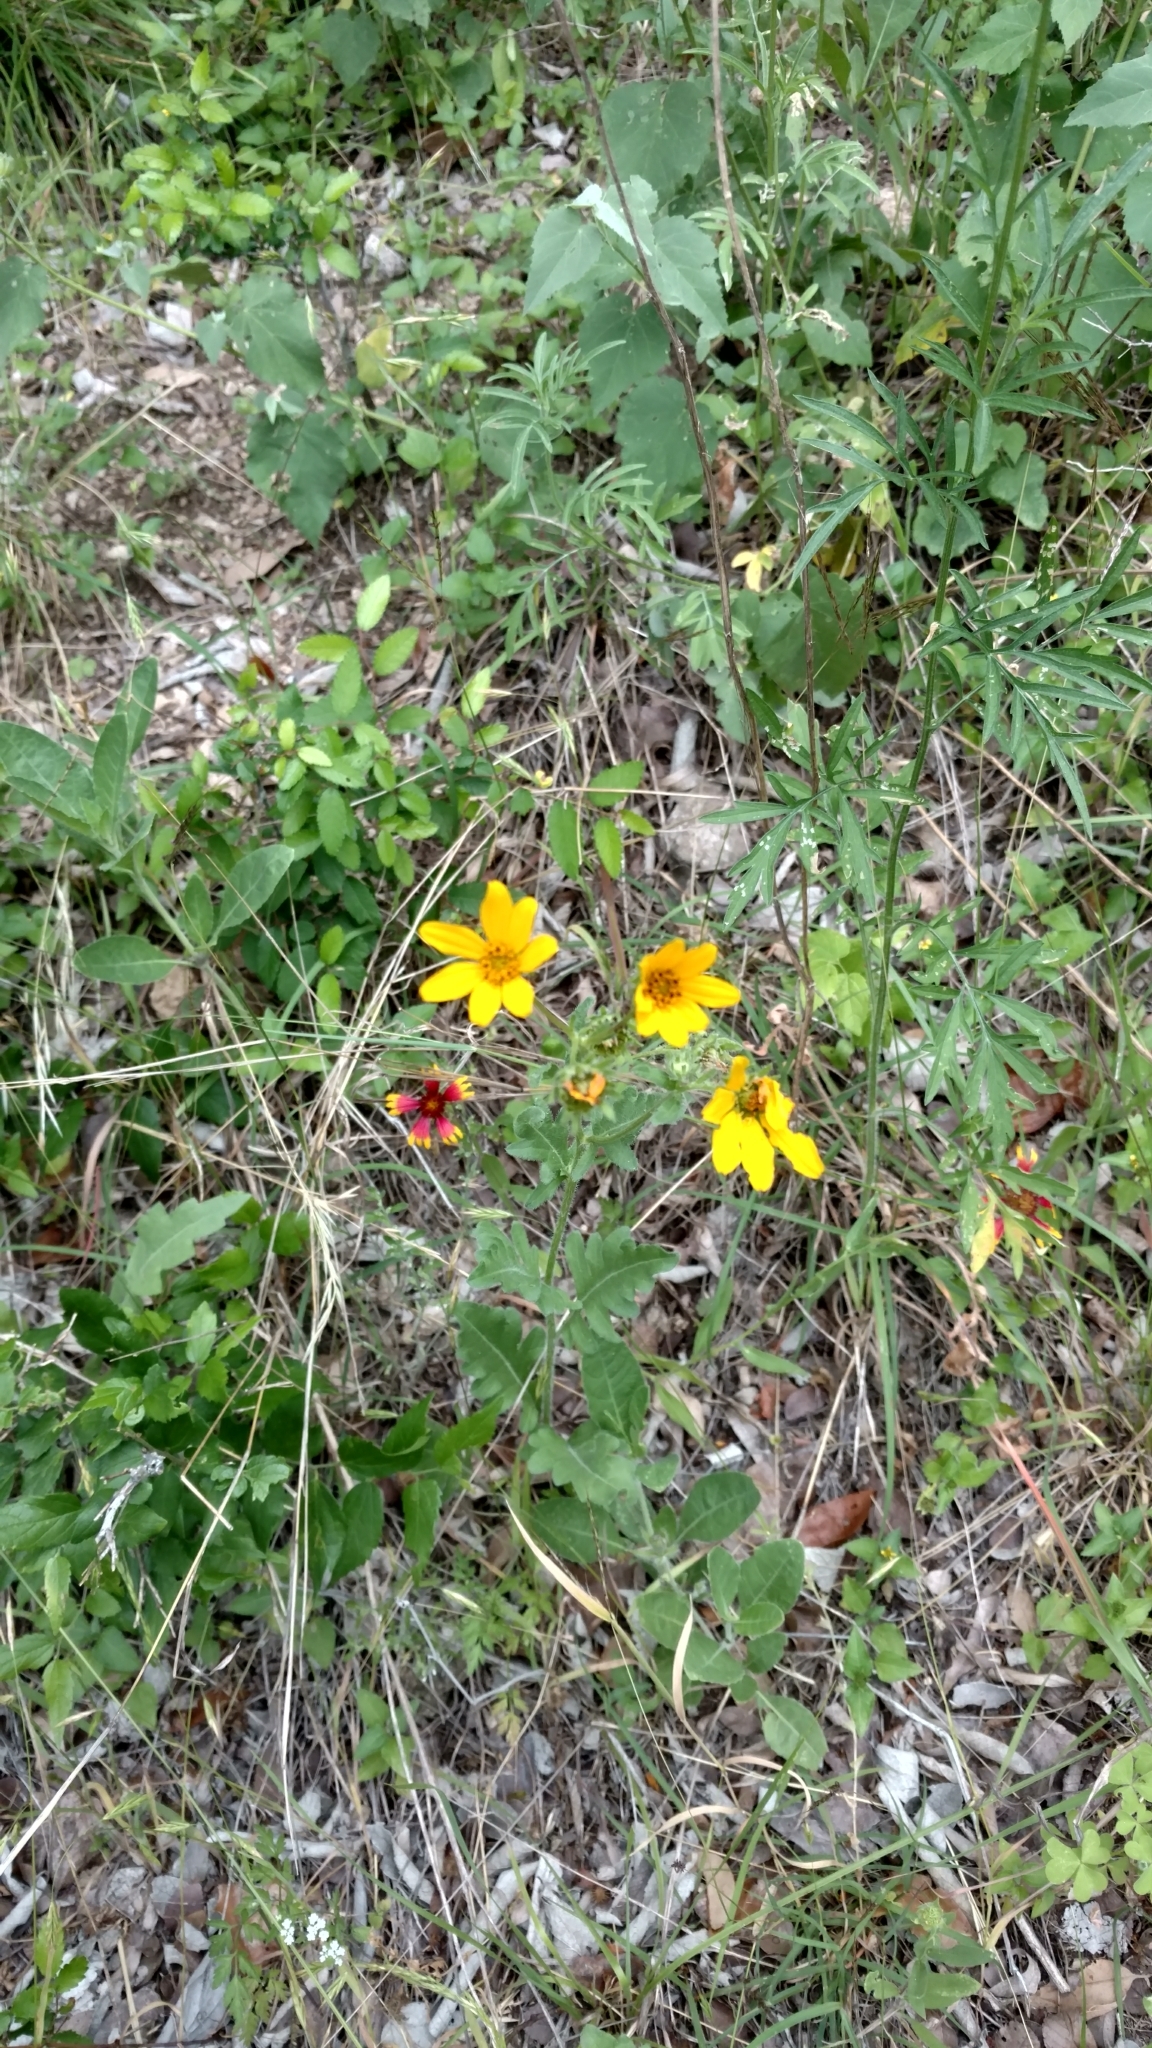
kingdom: Plantae
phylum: Tracheophyta
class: Magnoliopsida
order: Asterales
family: Asteraceae
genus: Engelmannia
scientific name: Engelmannia peristenia
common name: Engelmann's daisy
